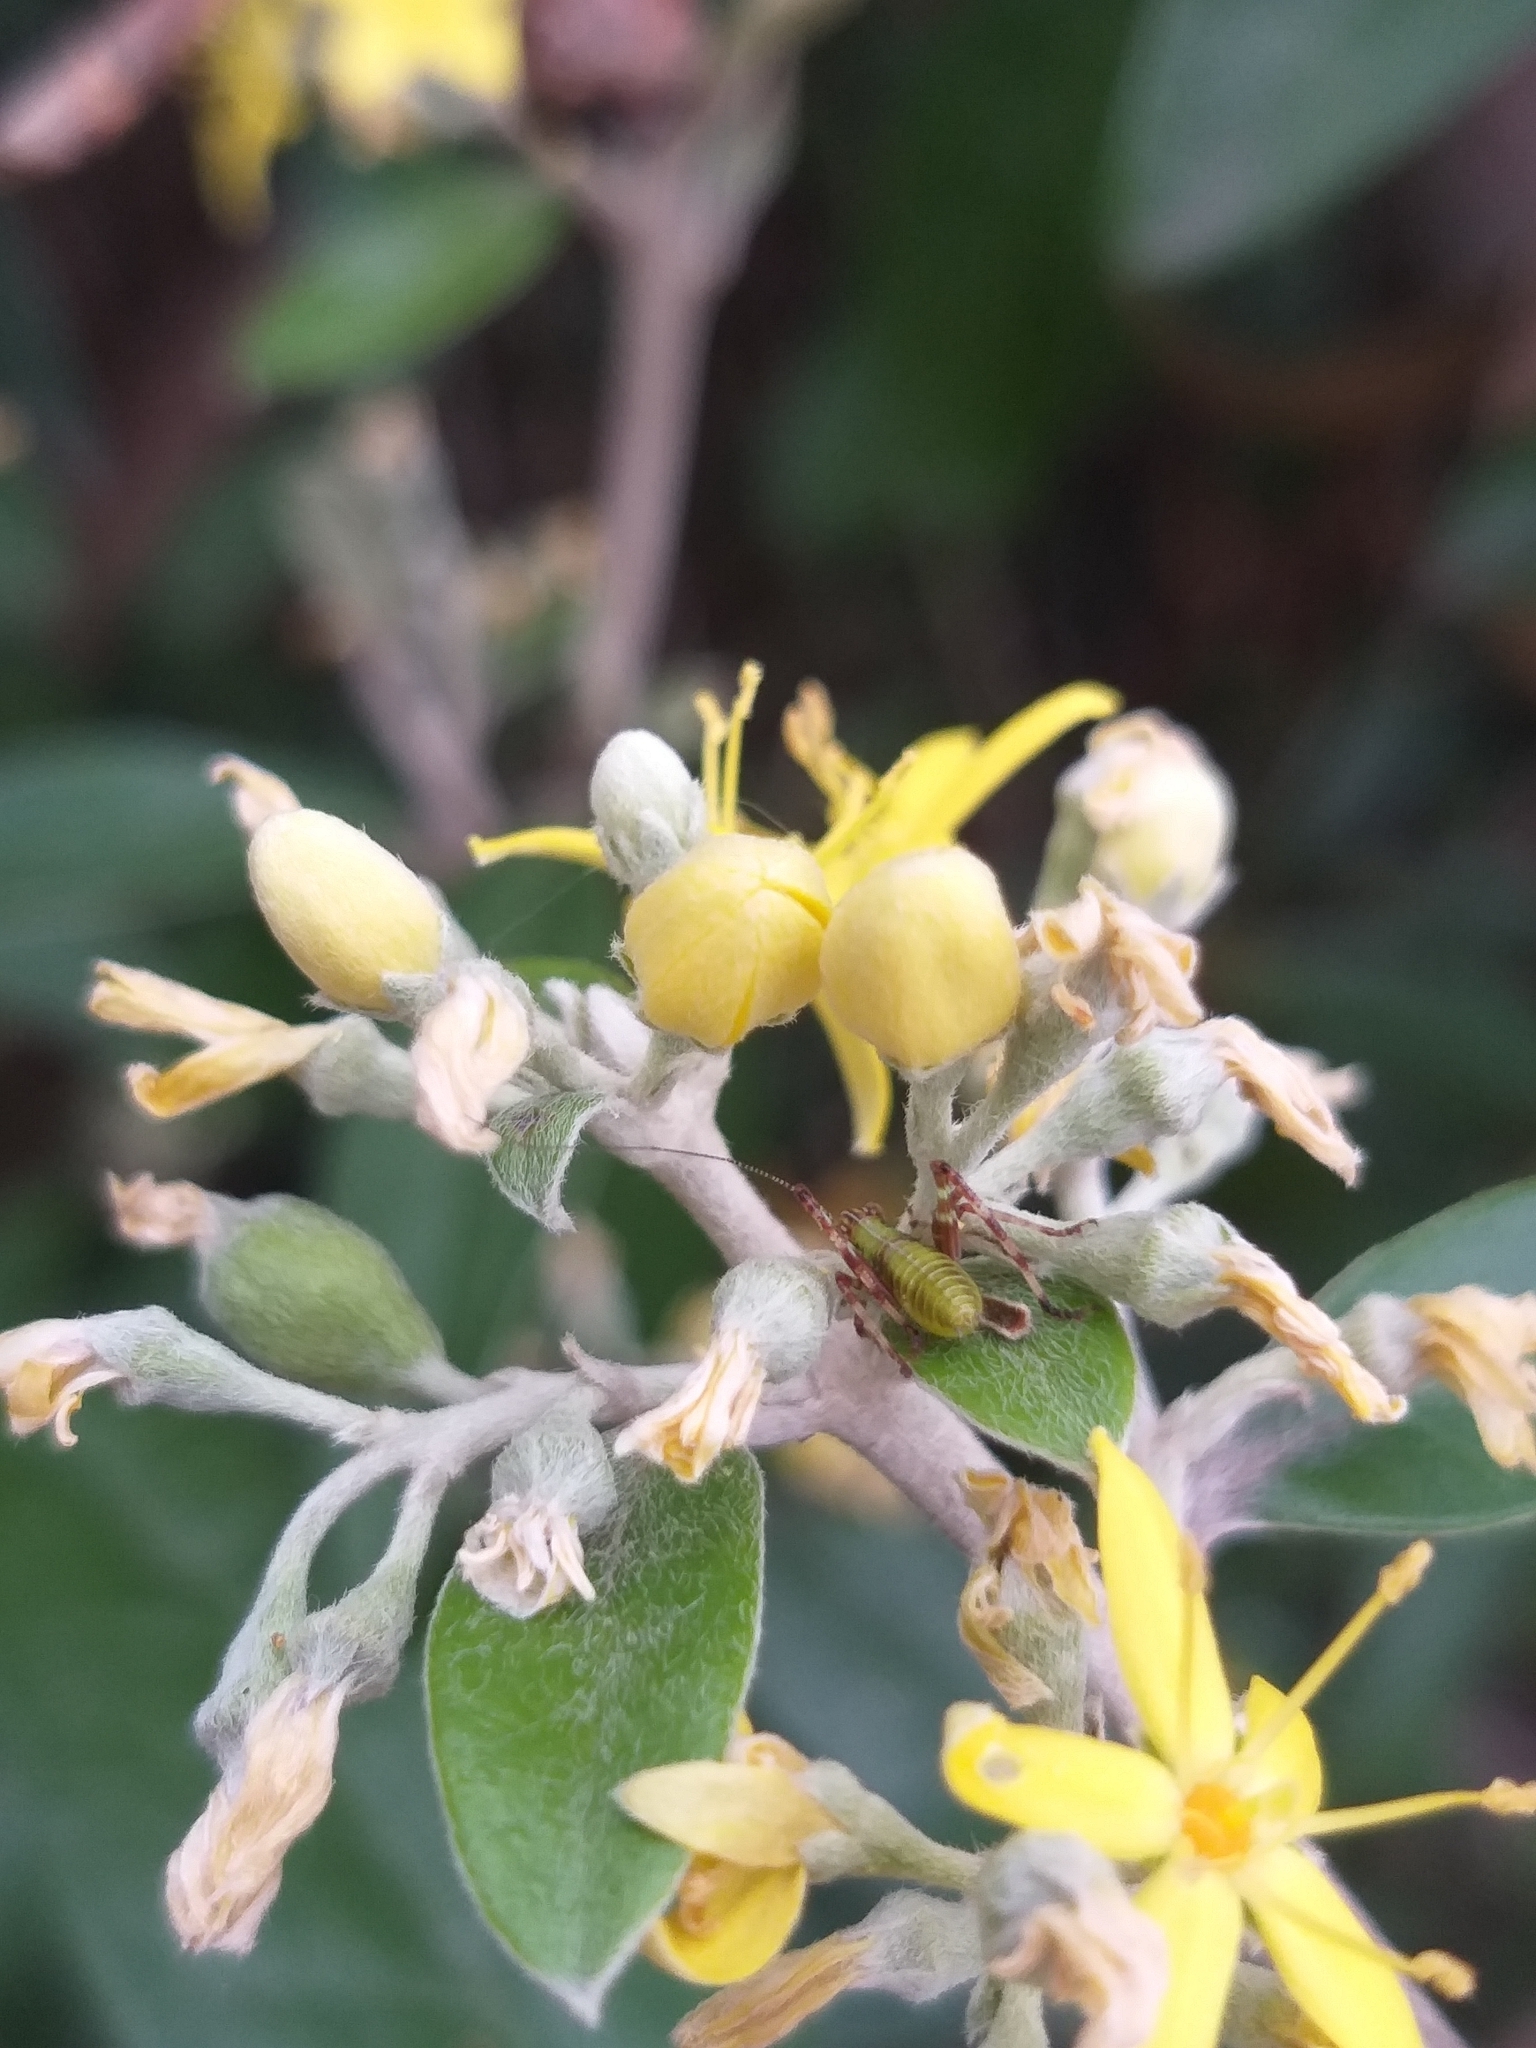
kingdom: Animalia
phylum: Arthropoda
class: Insecta
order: Orthoptera
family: Tettigoniidae
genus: Caedicia
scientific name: Caedicia simplex
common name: Common garden katydid
